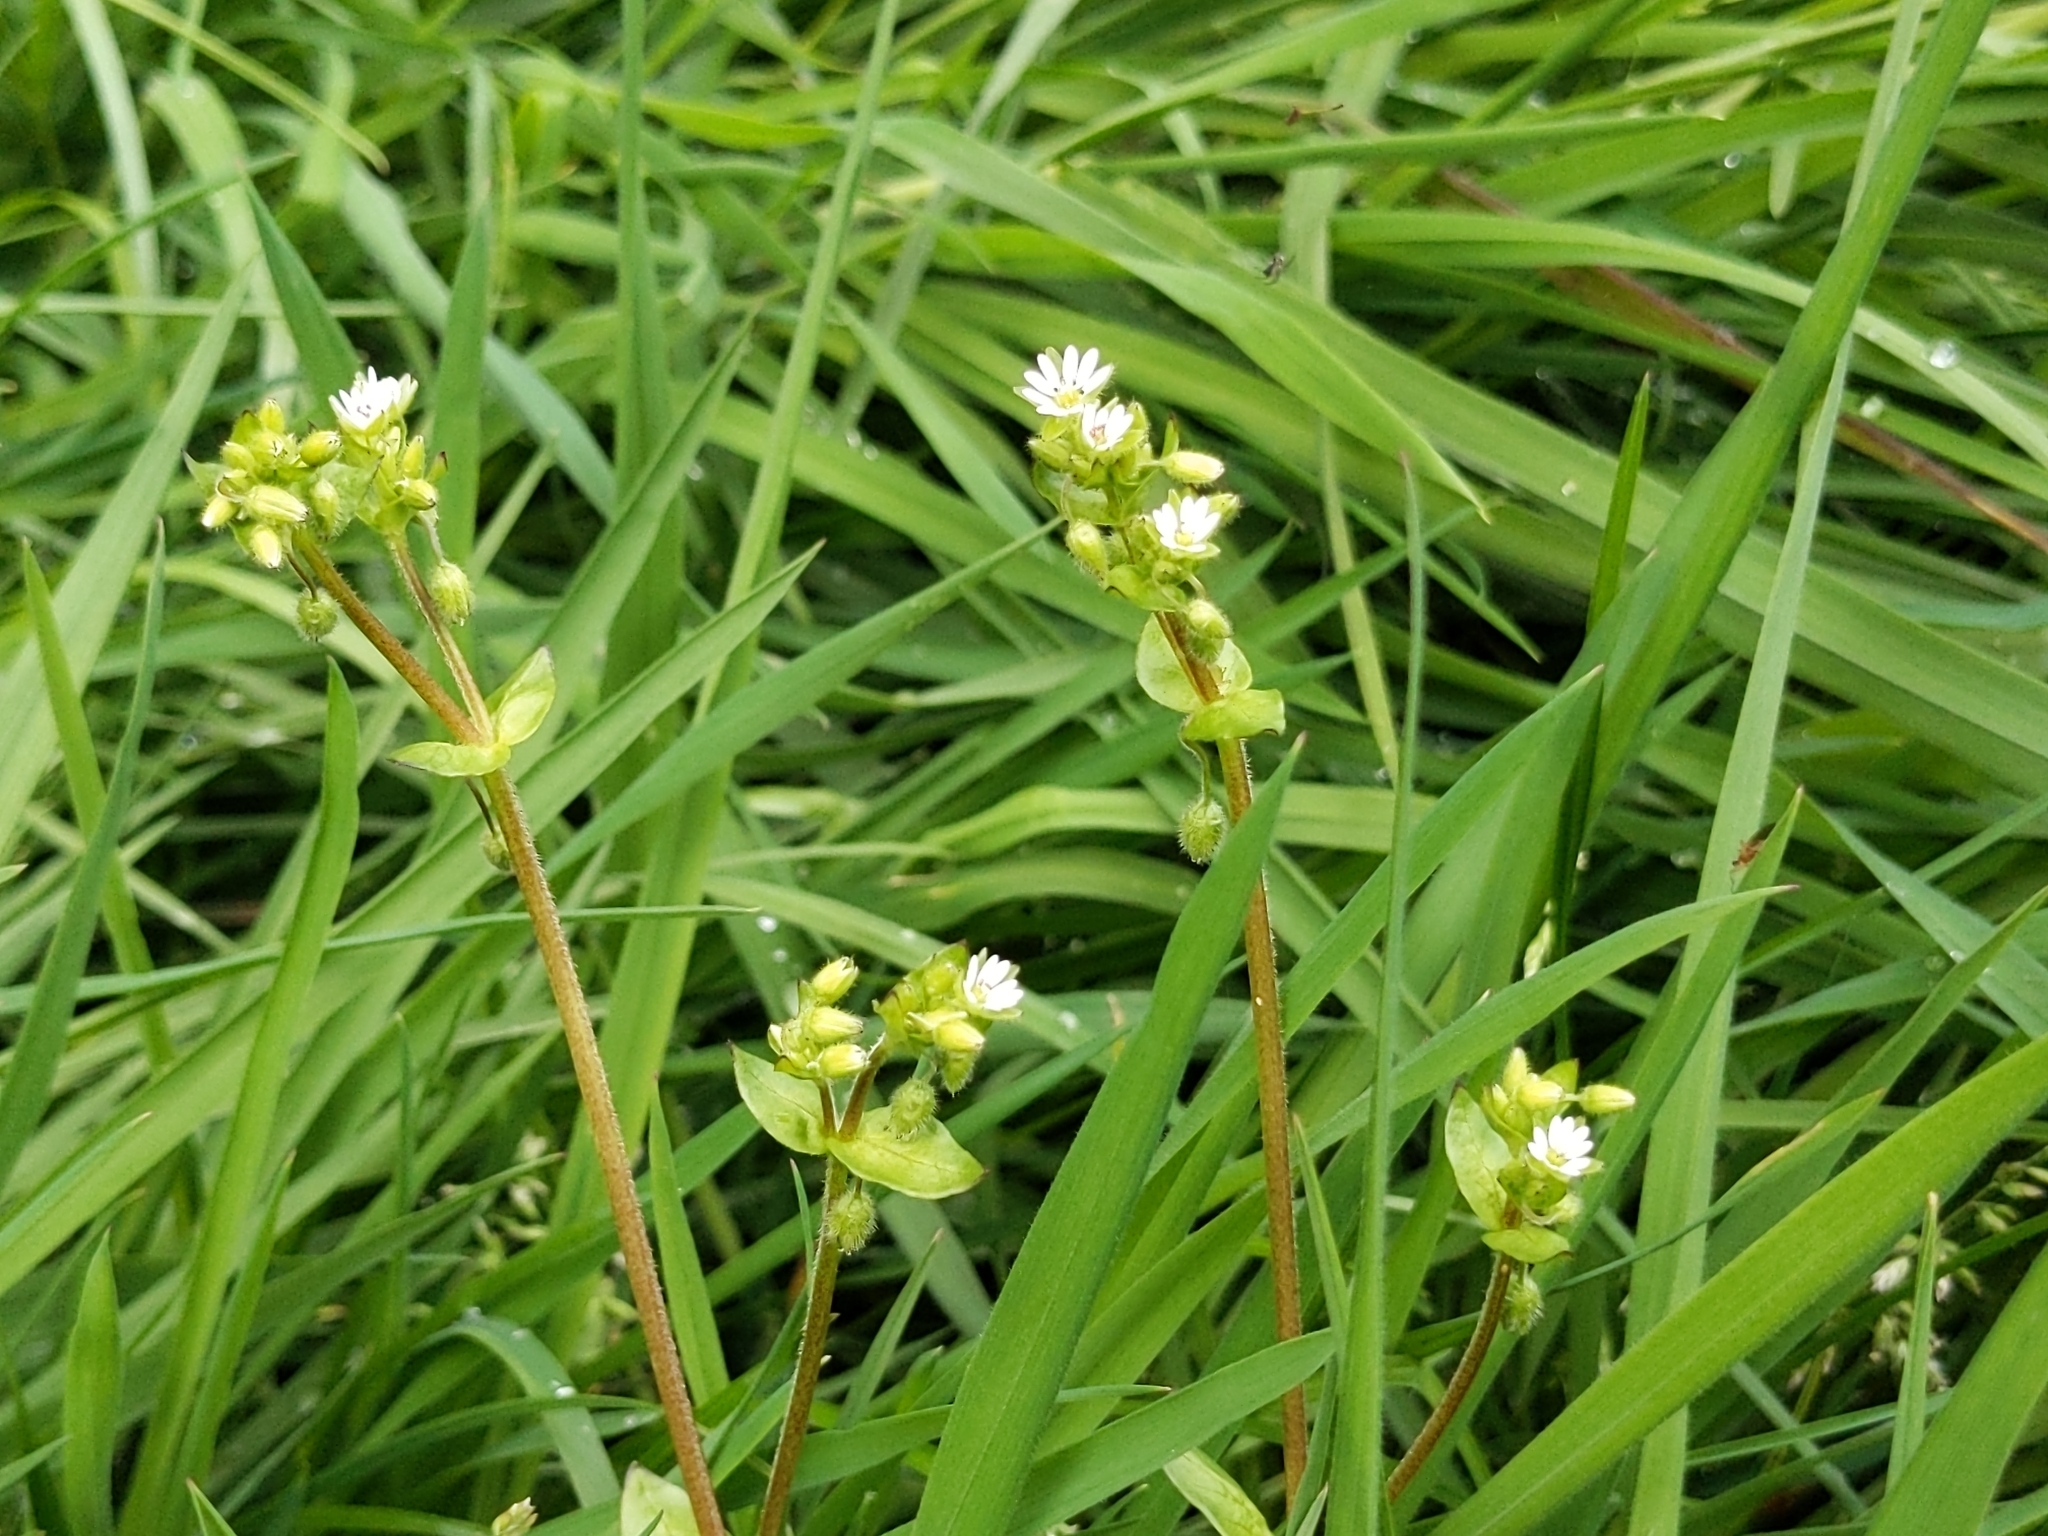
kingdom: Plantae
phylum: Tracheophyta
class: Magnoliopsida
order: Caryophyllales
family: Caryophyllaceae
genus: Stellaria
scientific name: Stellaria media
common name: Common chickweed
